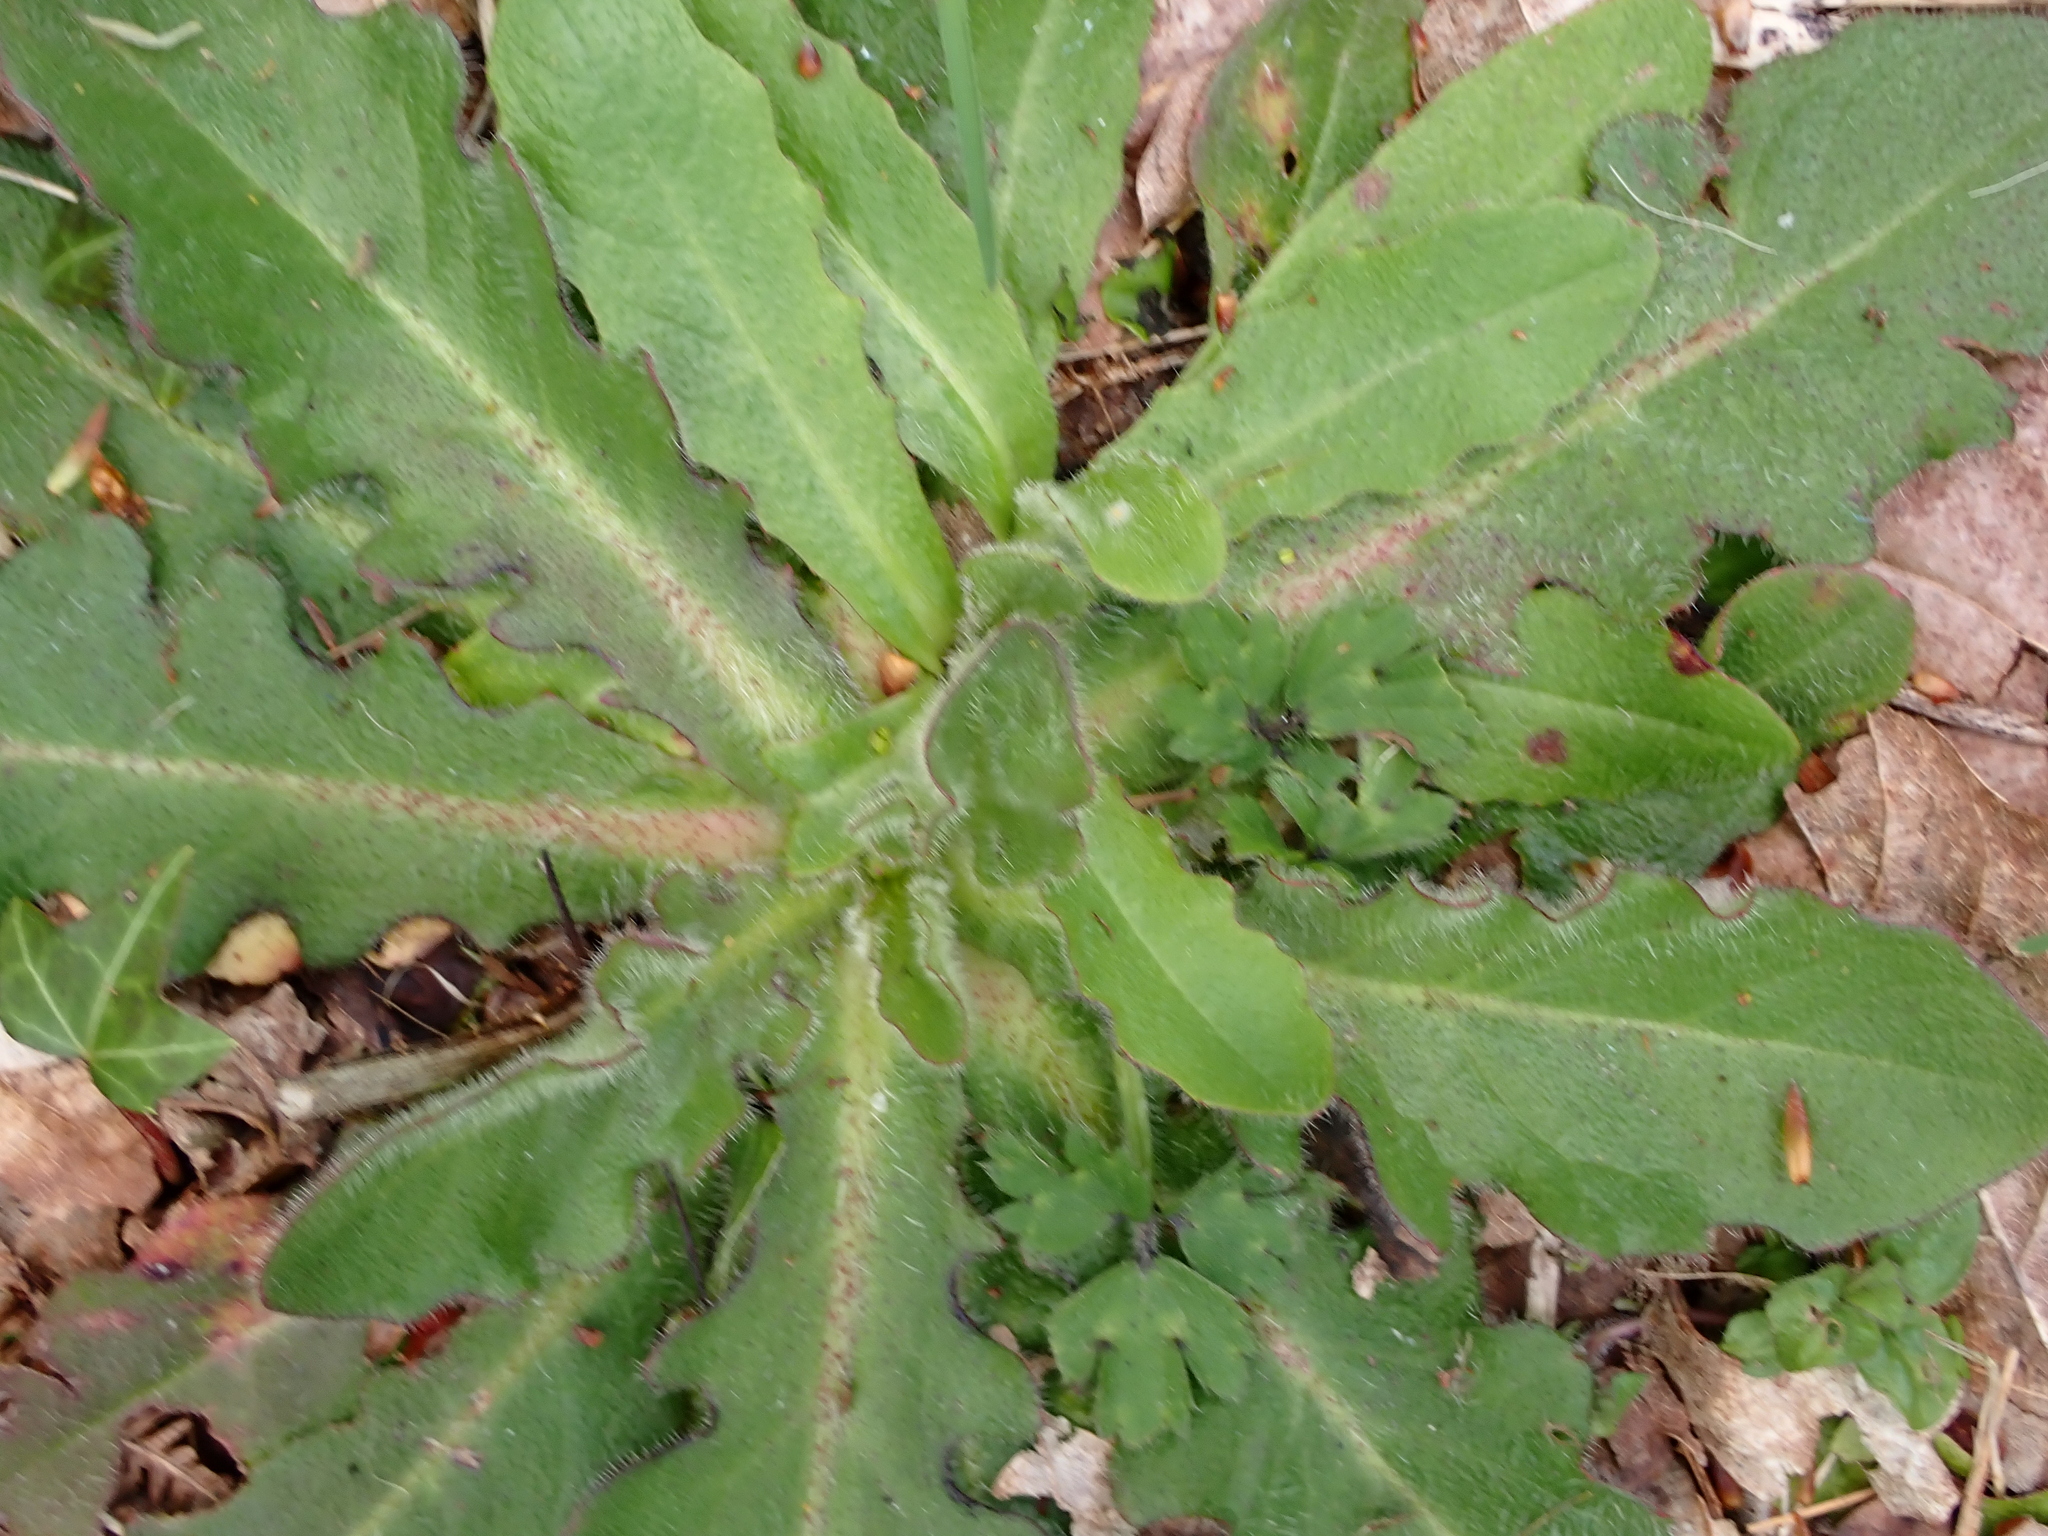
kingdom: Plantae
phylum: Tracheophyta
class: Magnoliopsida
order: Asterales
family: Asteraceae
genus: Hypochaeris
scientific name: Hypochaeris radicata
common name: Flatweed
